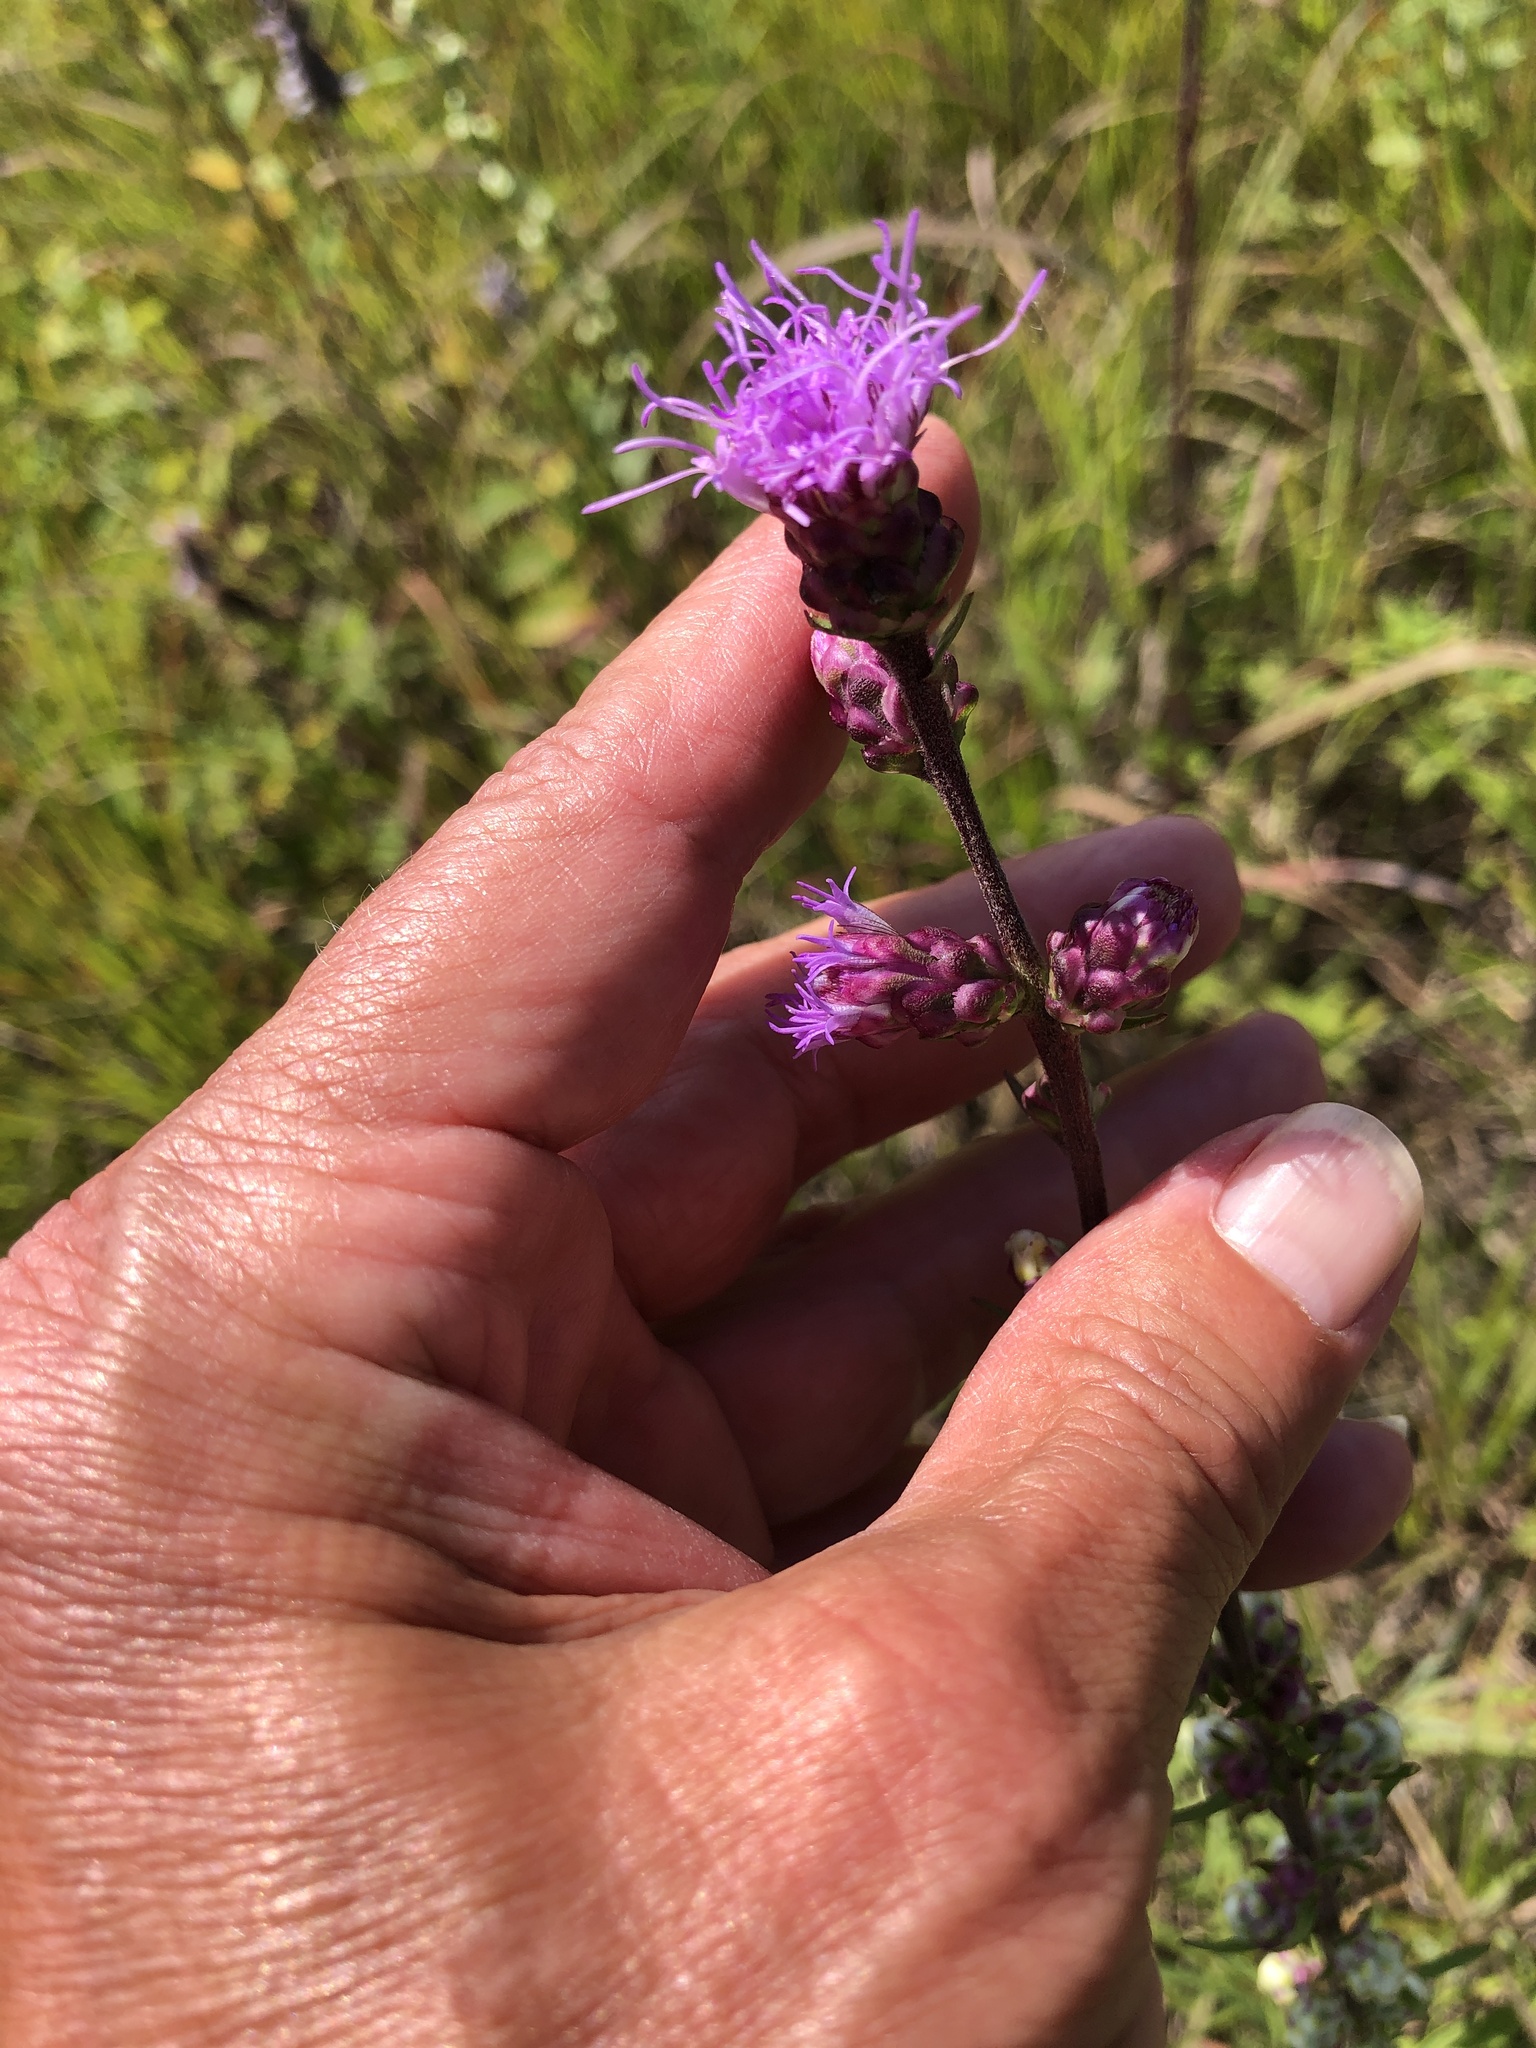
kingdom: Plantae
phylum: Tracheophyta
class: Magnoliopsida
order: Asterales
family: Asteraceae
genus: Liatris
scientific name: Liatris aspera
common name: Lacerate blazing-star
